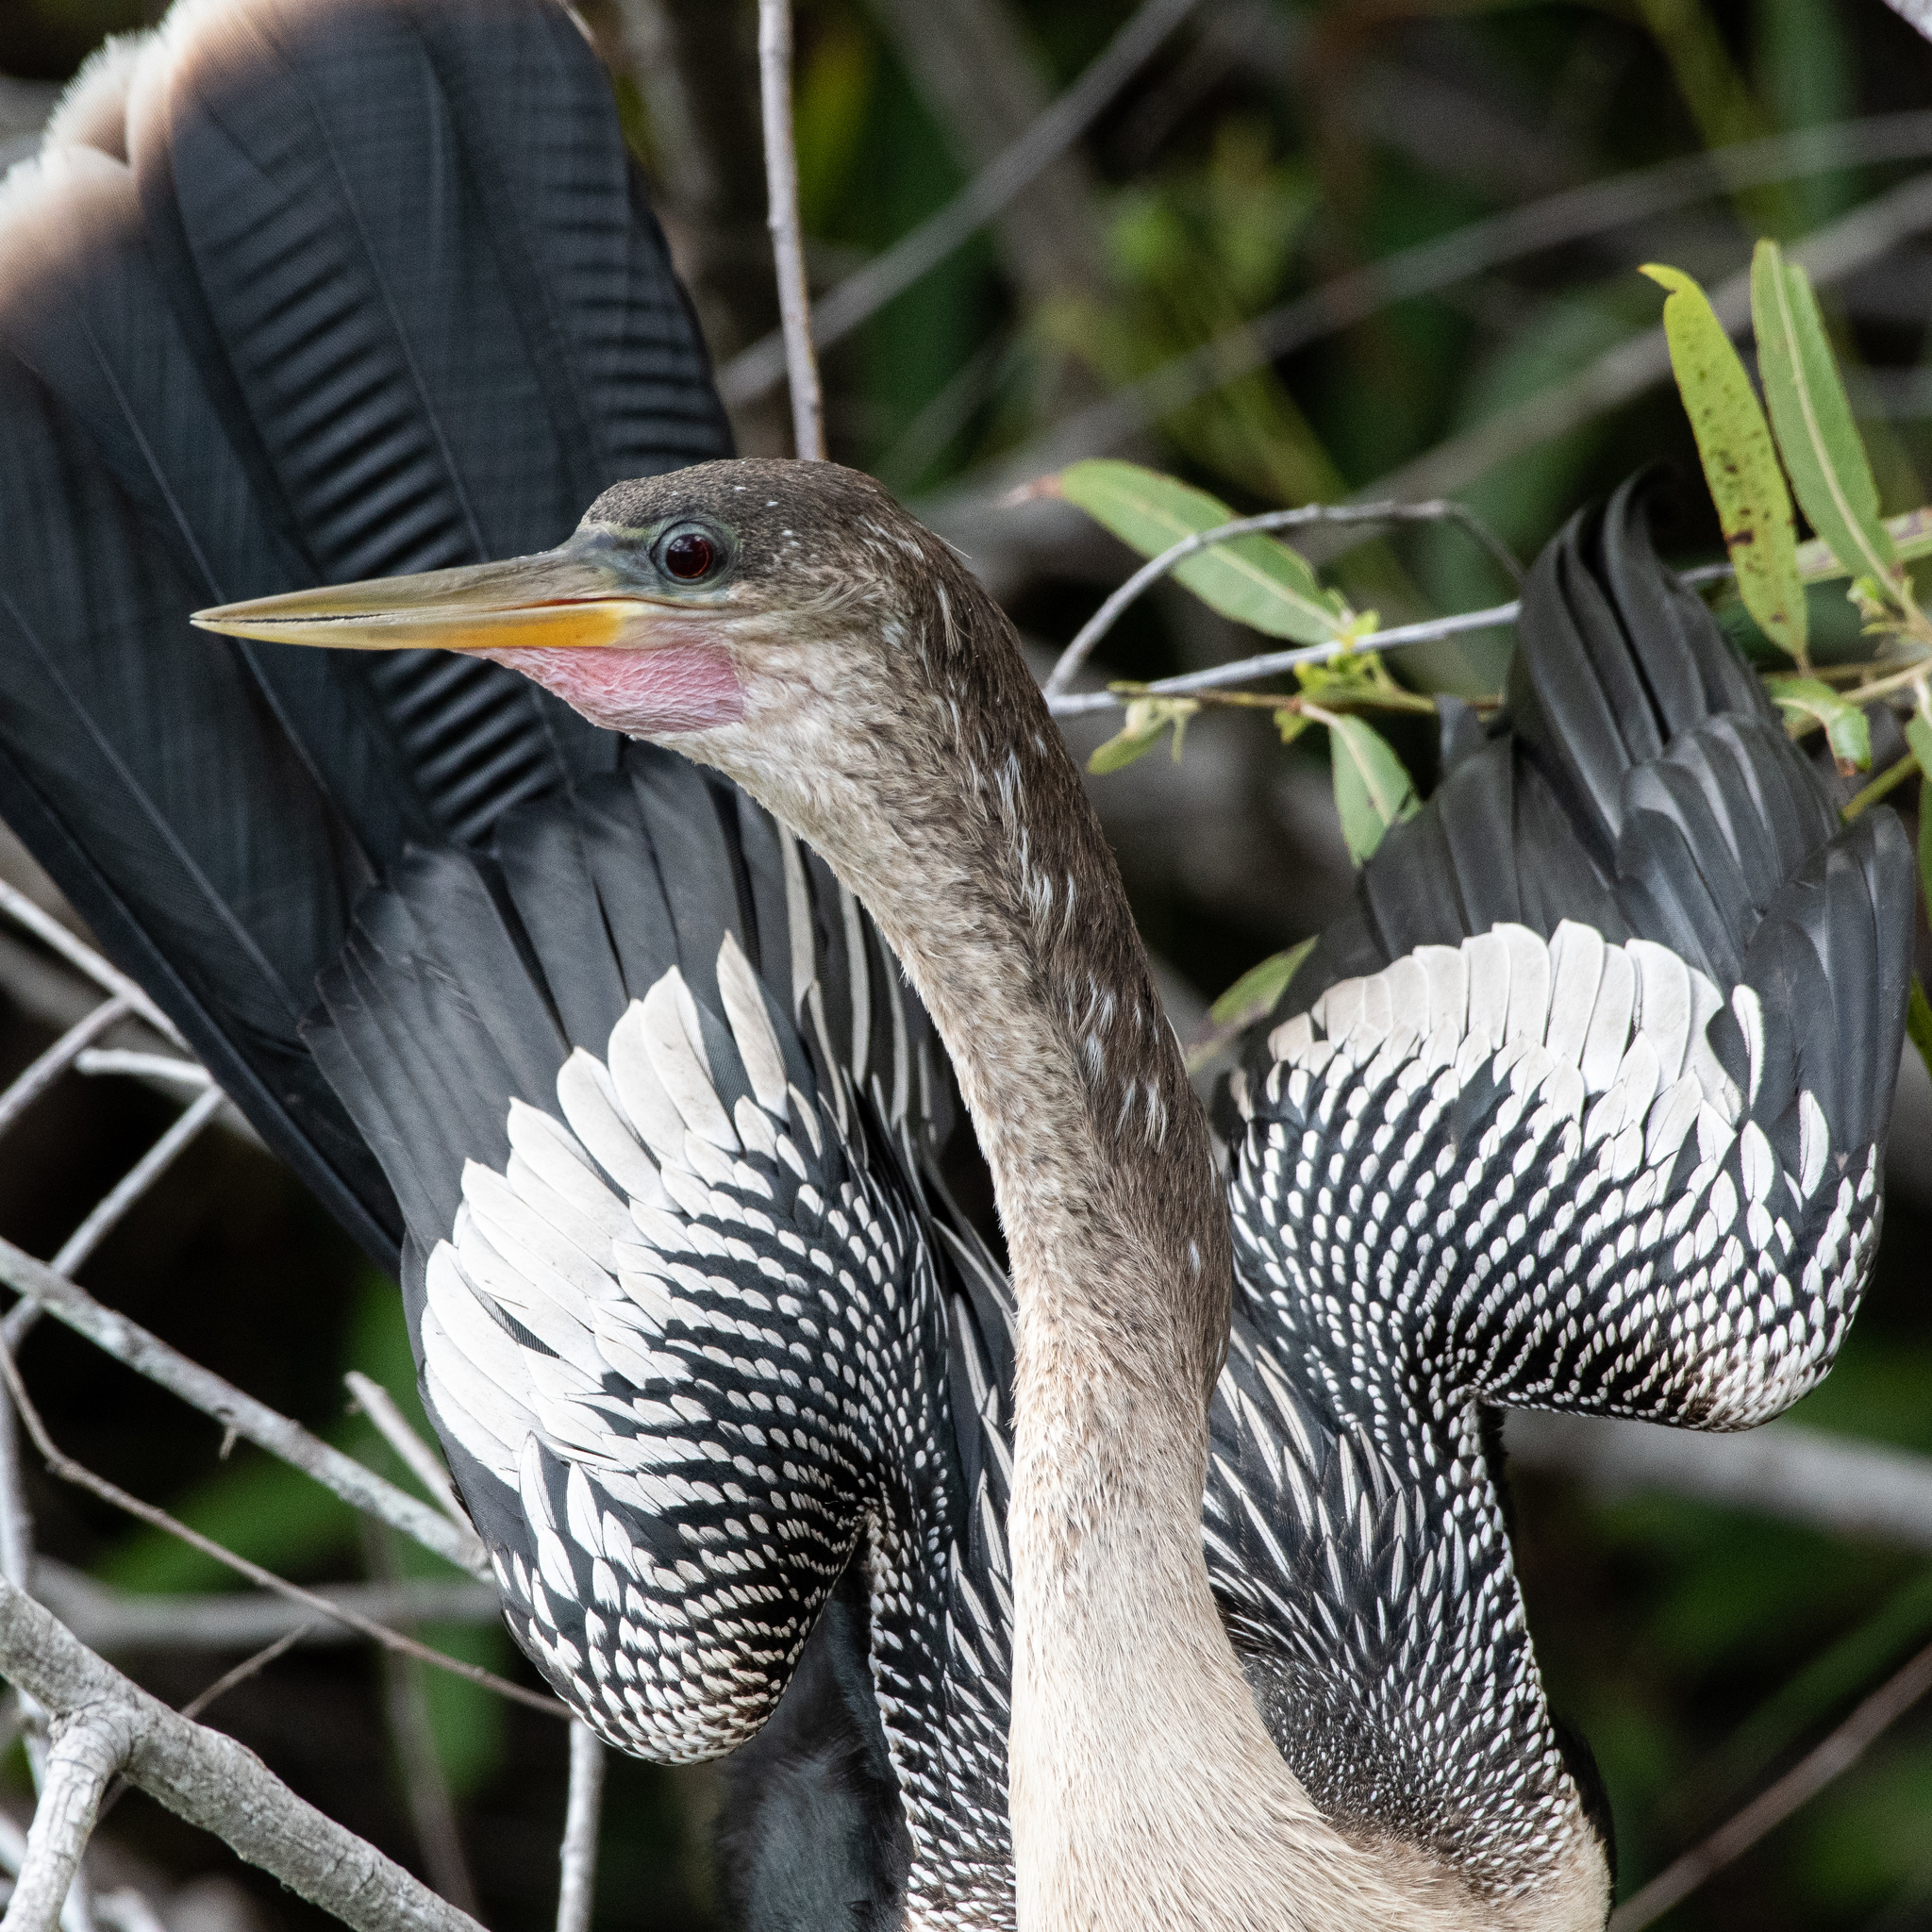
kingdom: Animalia
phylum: Chordata
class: Aves
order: Suliformes
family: Anhingidae
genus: Anhinga
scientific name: Anhinga anhinga
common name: Anhinga
